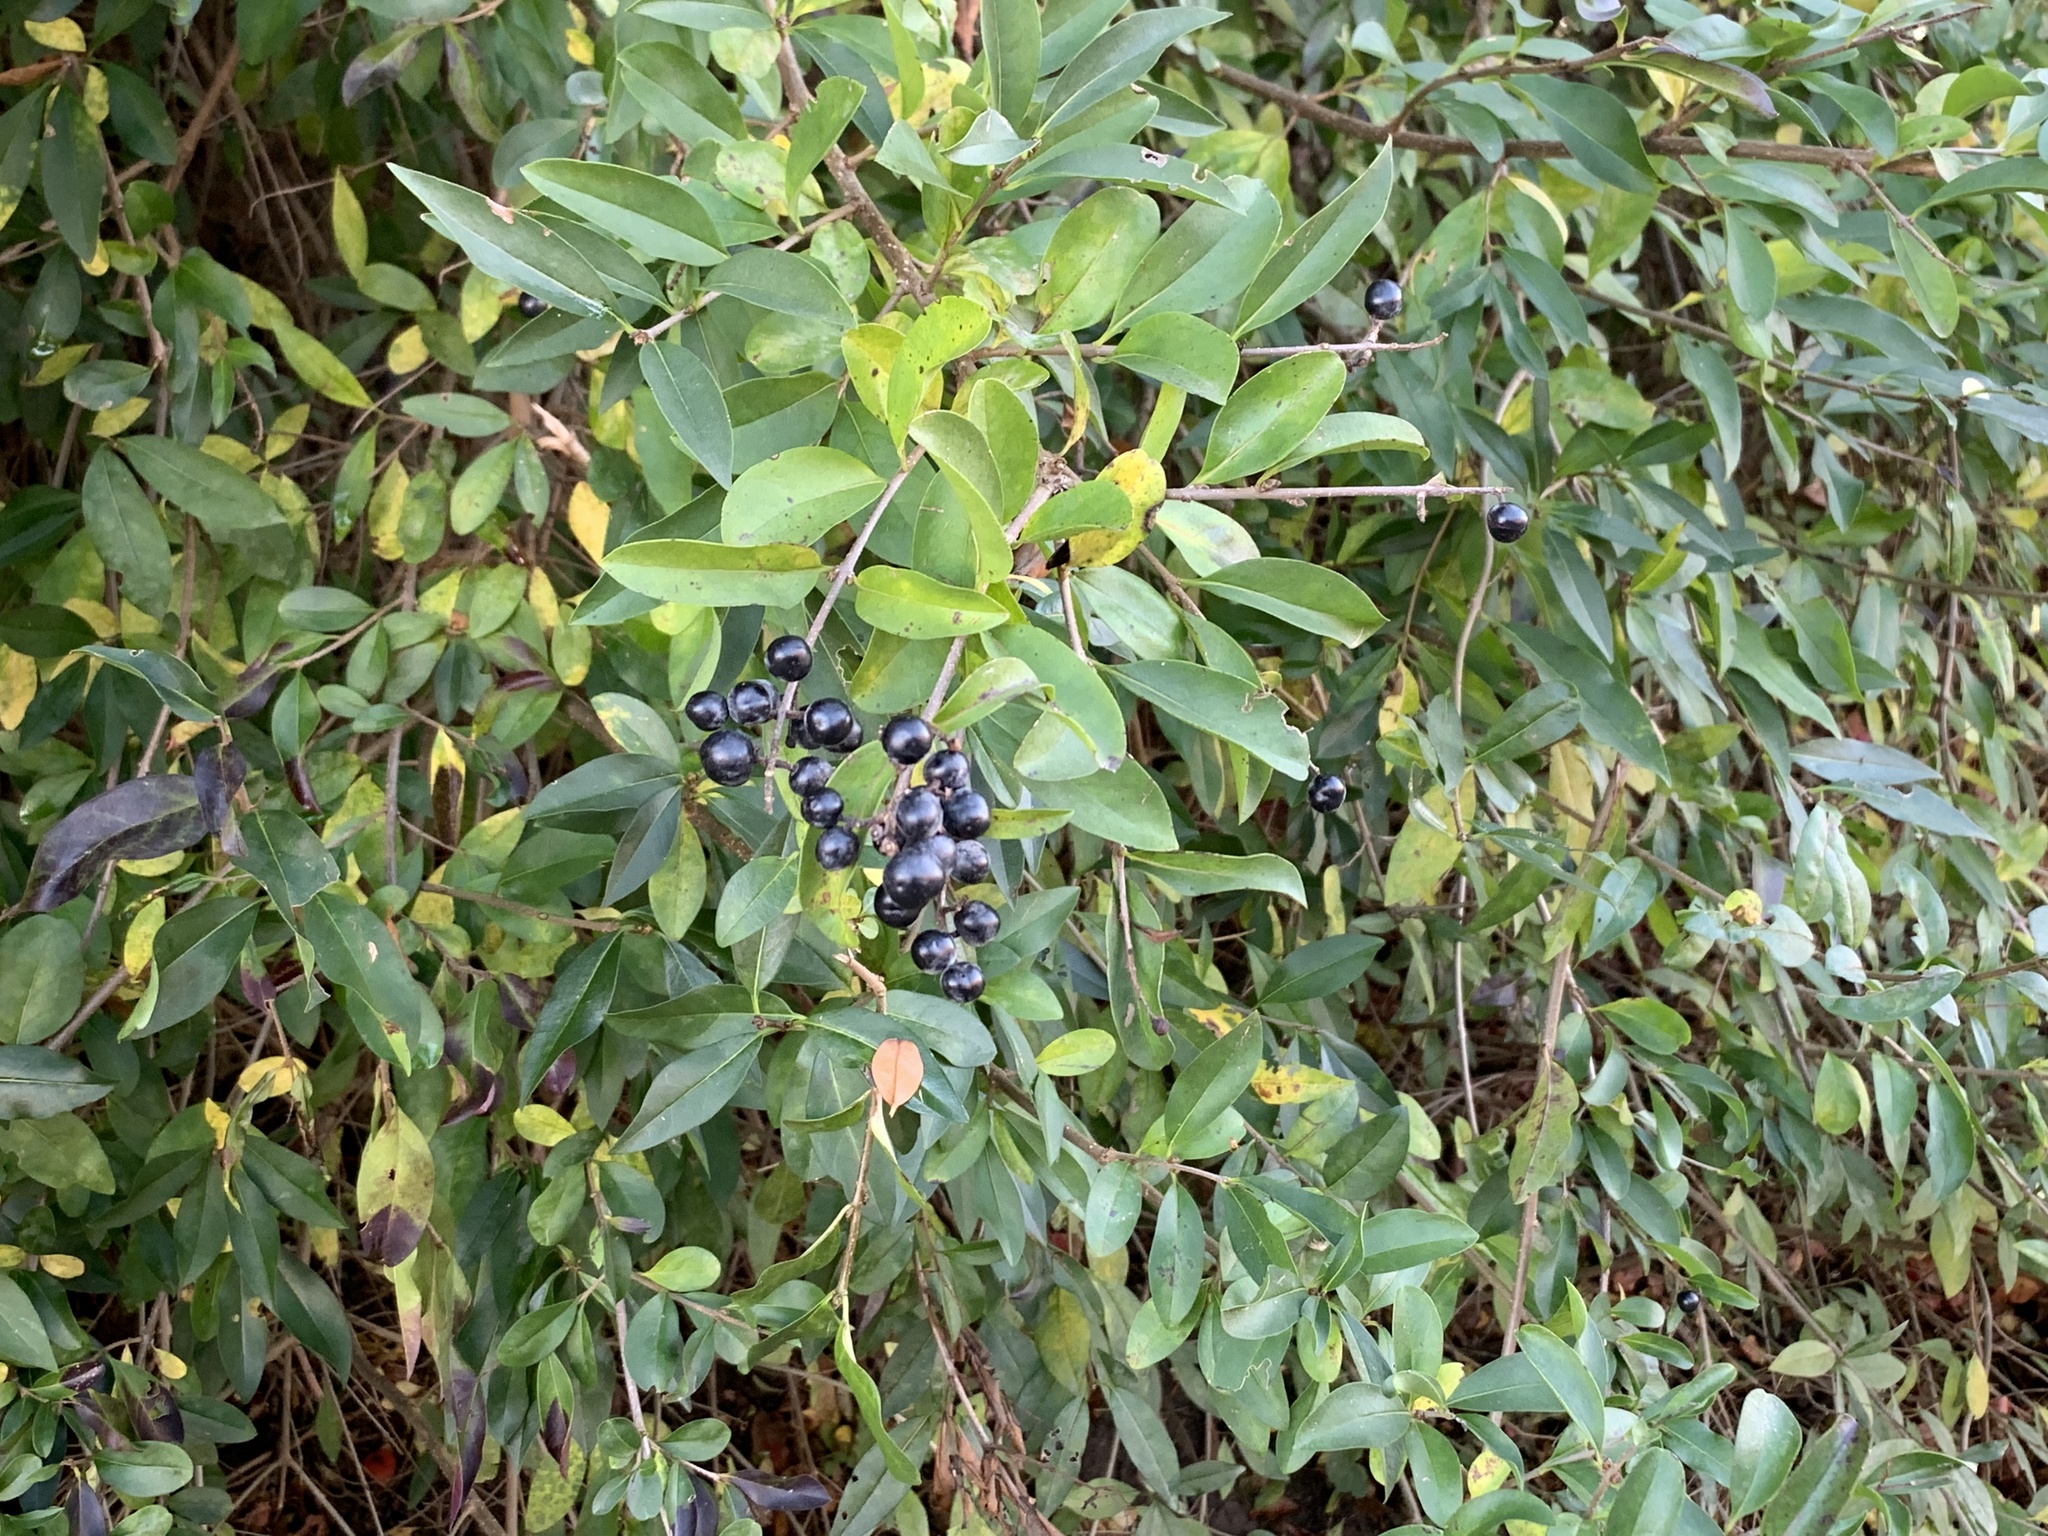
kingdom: Plantae
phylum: Tracheophyta
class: Magnoliopsida
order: Lamiales
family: Oleaceae
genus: Ligustrum
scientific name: Ligustrum vulgare
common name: Wild privet
